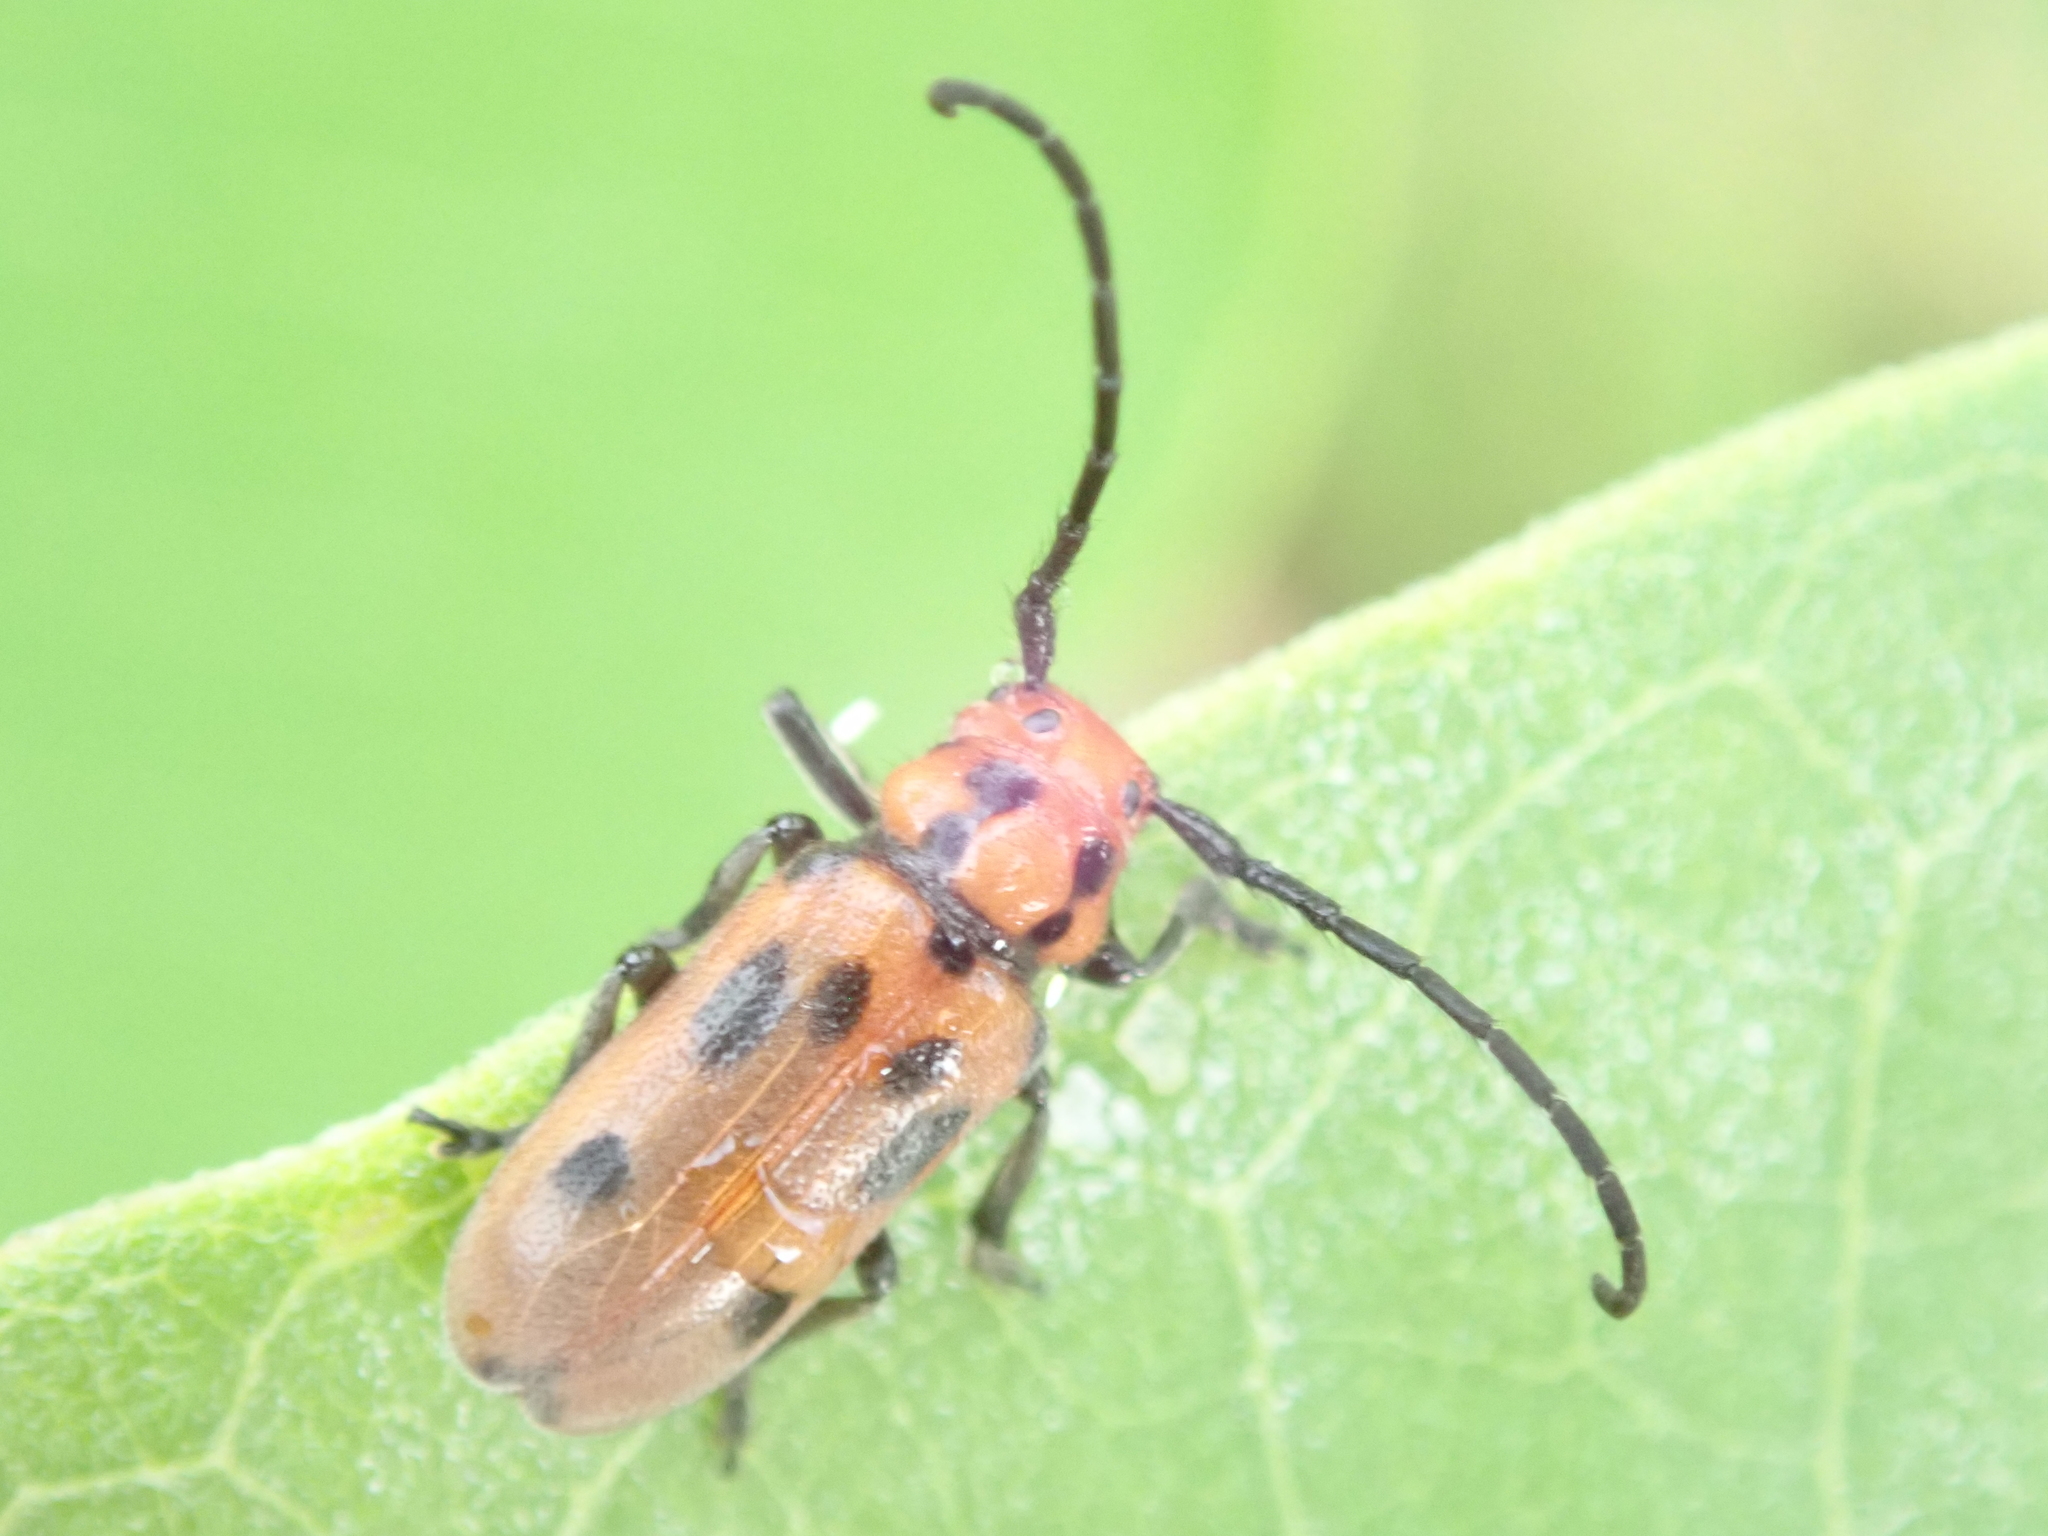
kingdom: Animalia
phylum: Arthropoda
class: Insecta
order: Coleoptera
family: Cerambycidae
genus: Tetraopes
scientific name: Tetraopes tetrophthalmus
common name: Red milkweed beetle
